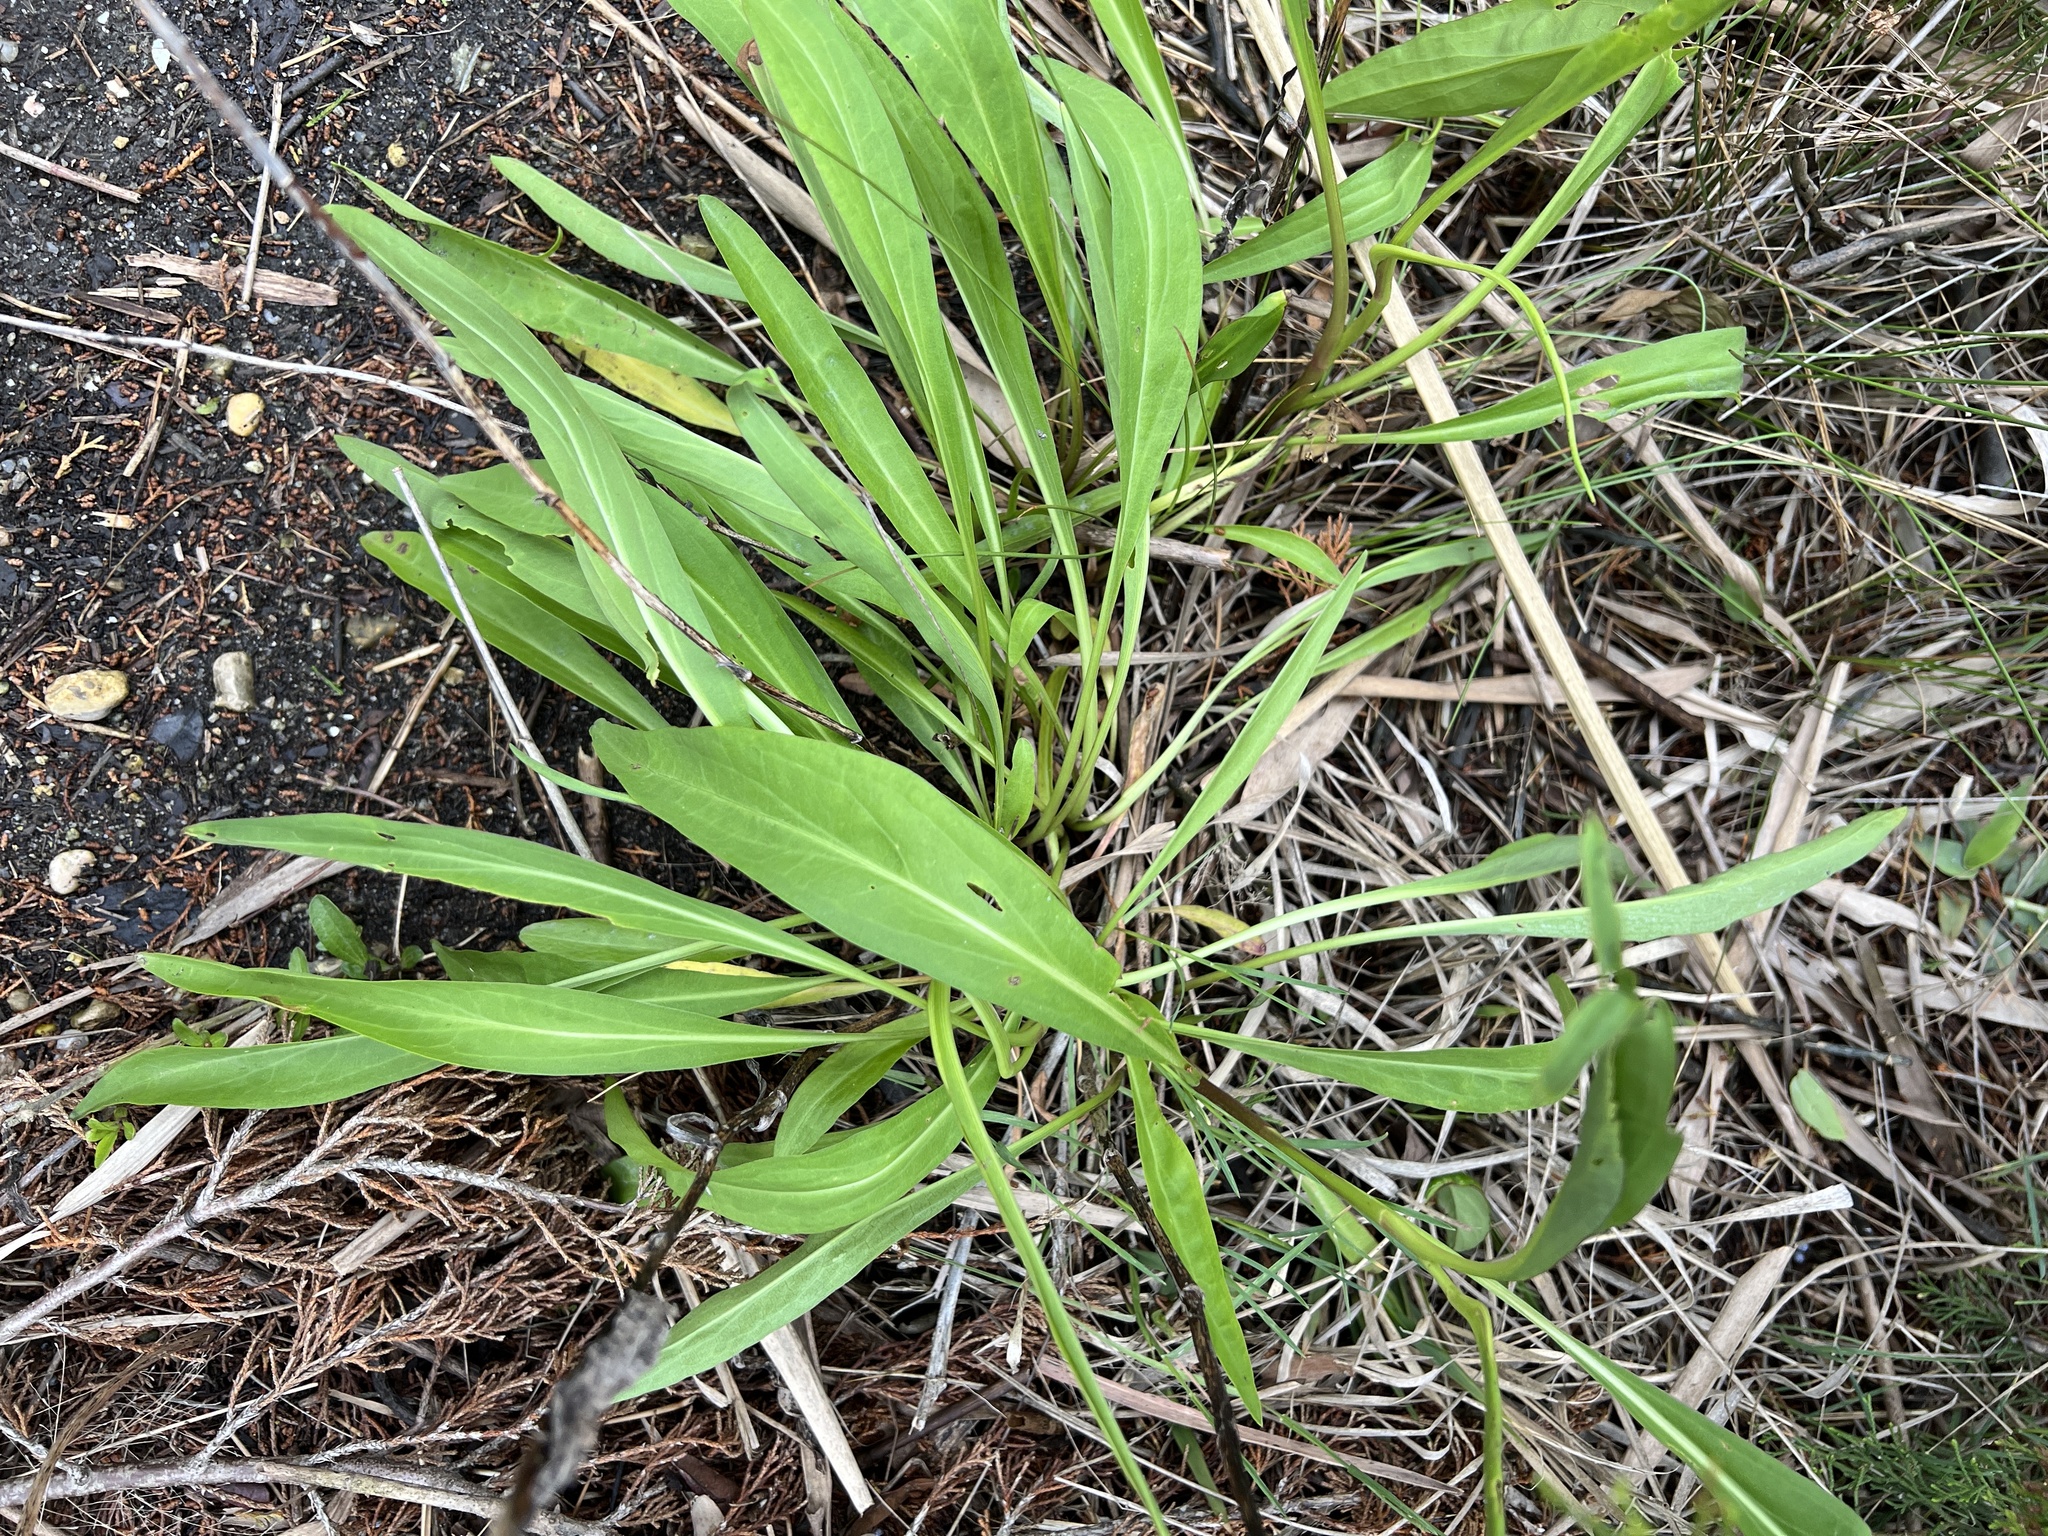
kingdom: Plantae
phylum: Tracheophyta
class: Magnoliopsida
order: Asterales
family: Asteraceae
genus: Solidago
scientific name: Solidago sempervirens
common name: Salt-marsh goldenrod
